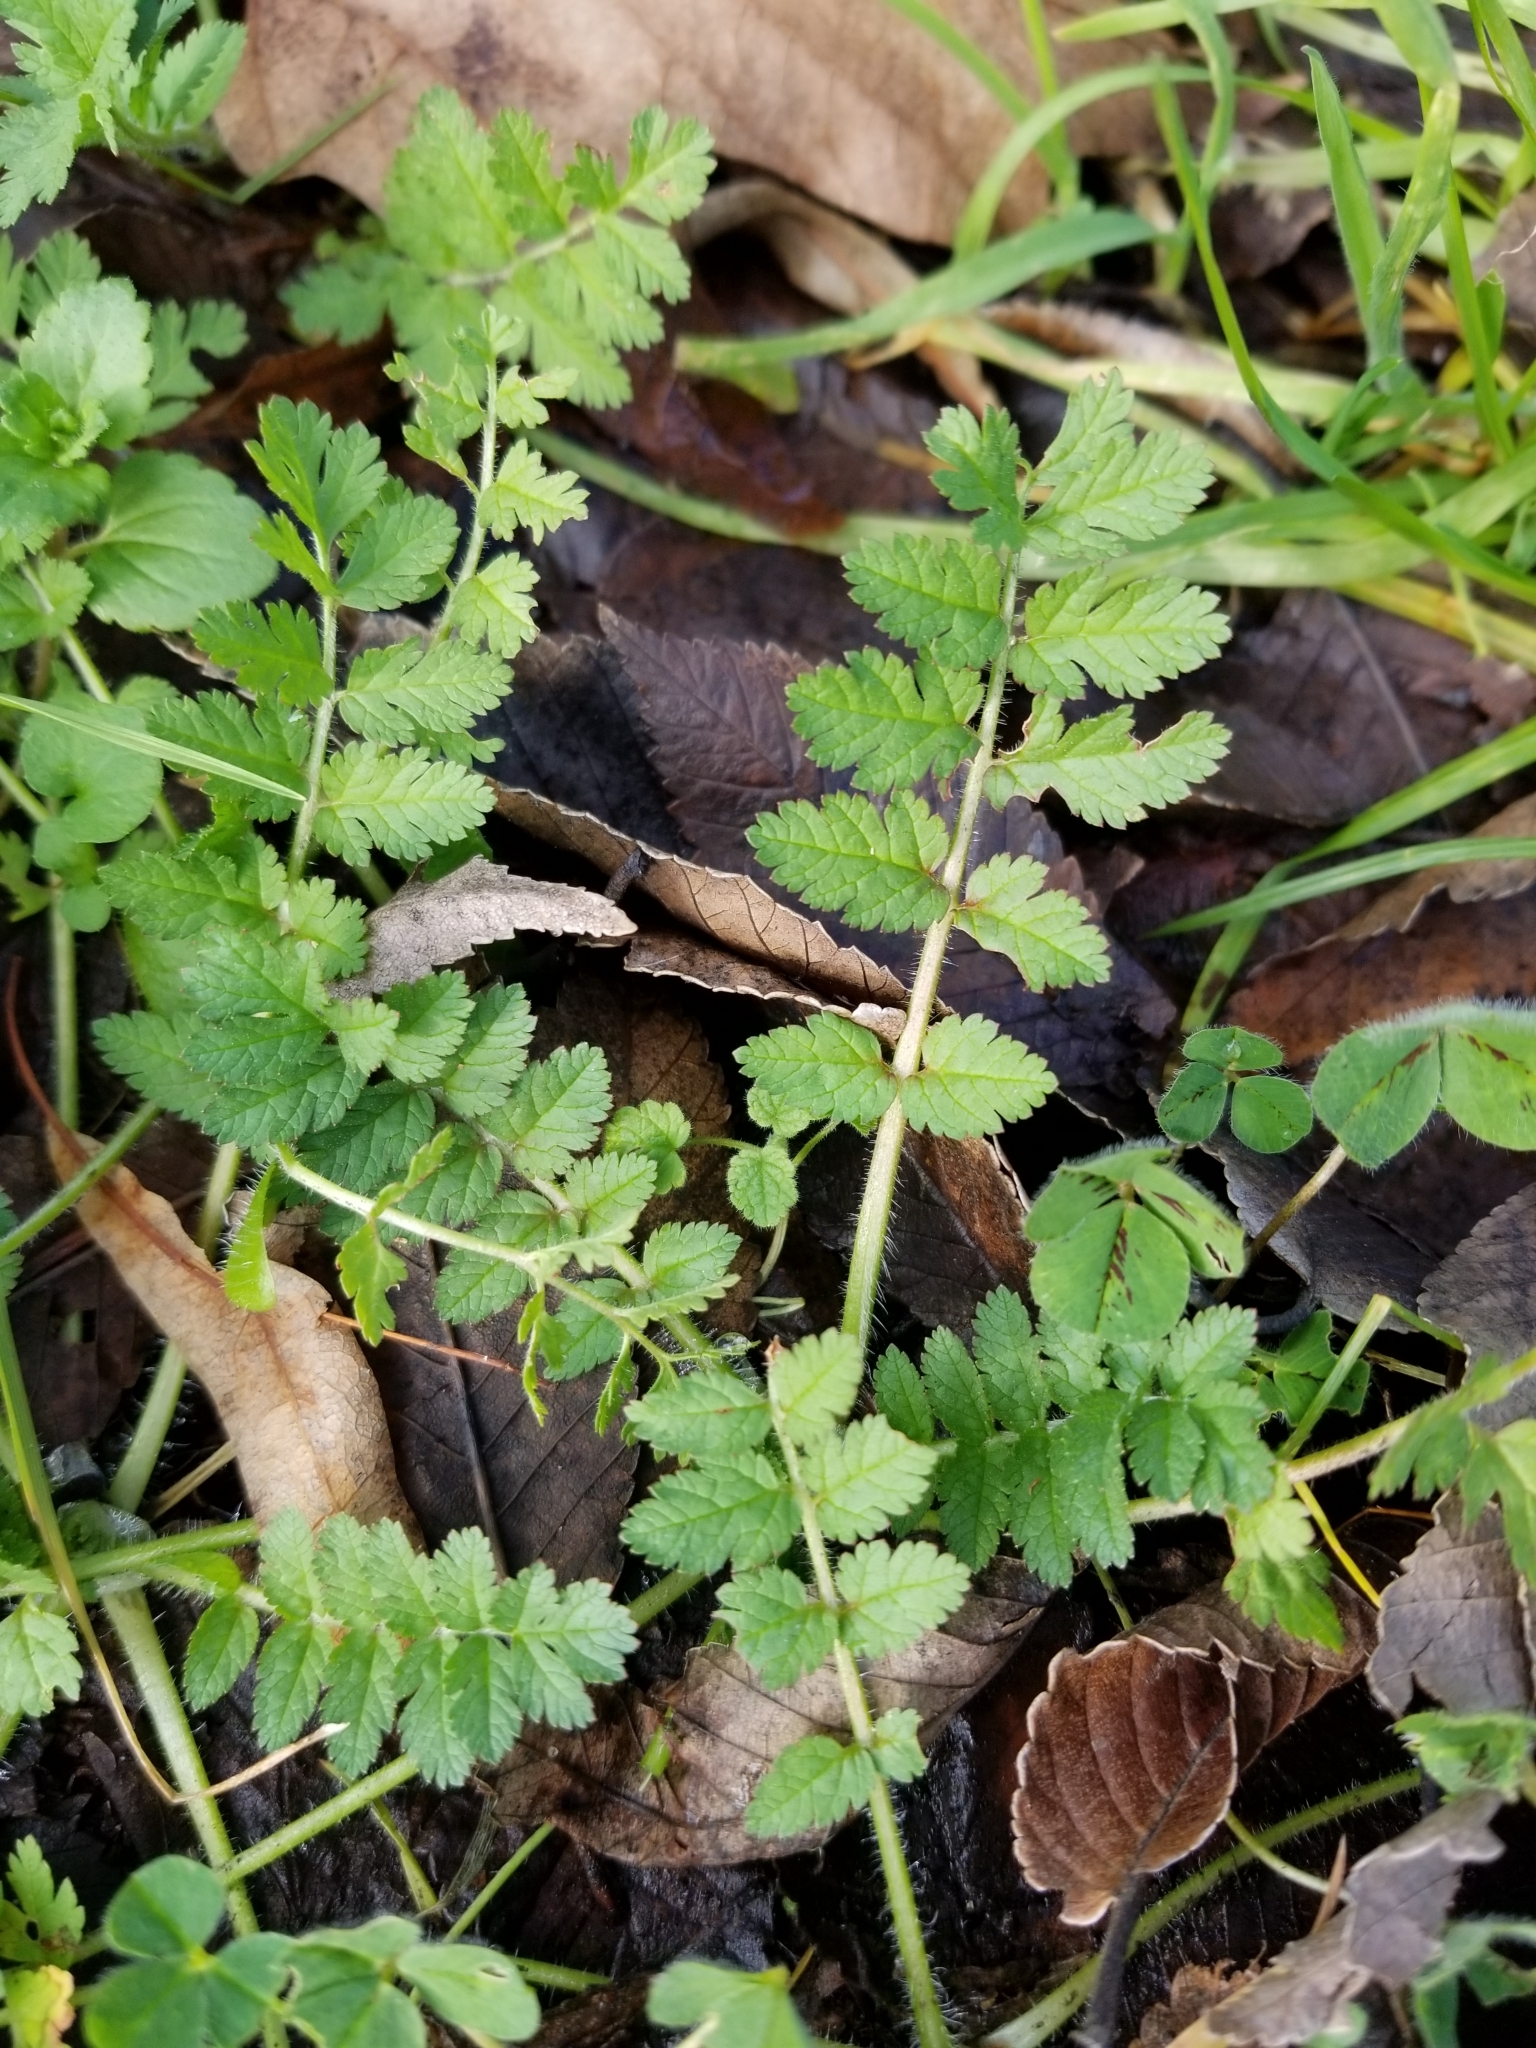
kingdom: Plantae
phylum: Tracheophyta
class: Magnoliopsida
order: Geraniales
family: Geraniaceae
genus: Erodium
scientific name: Erodium moschatum
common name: Musk stork's-bill
